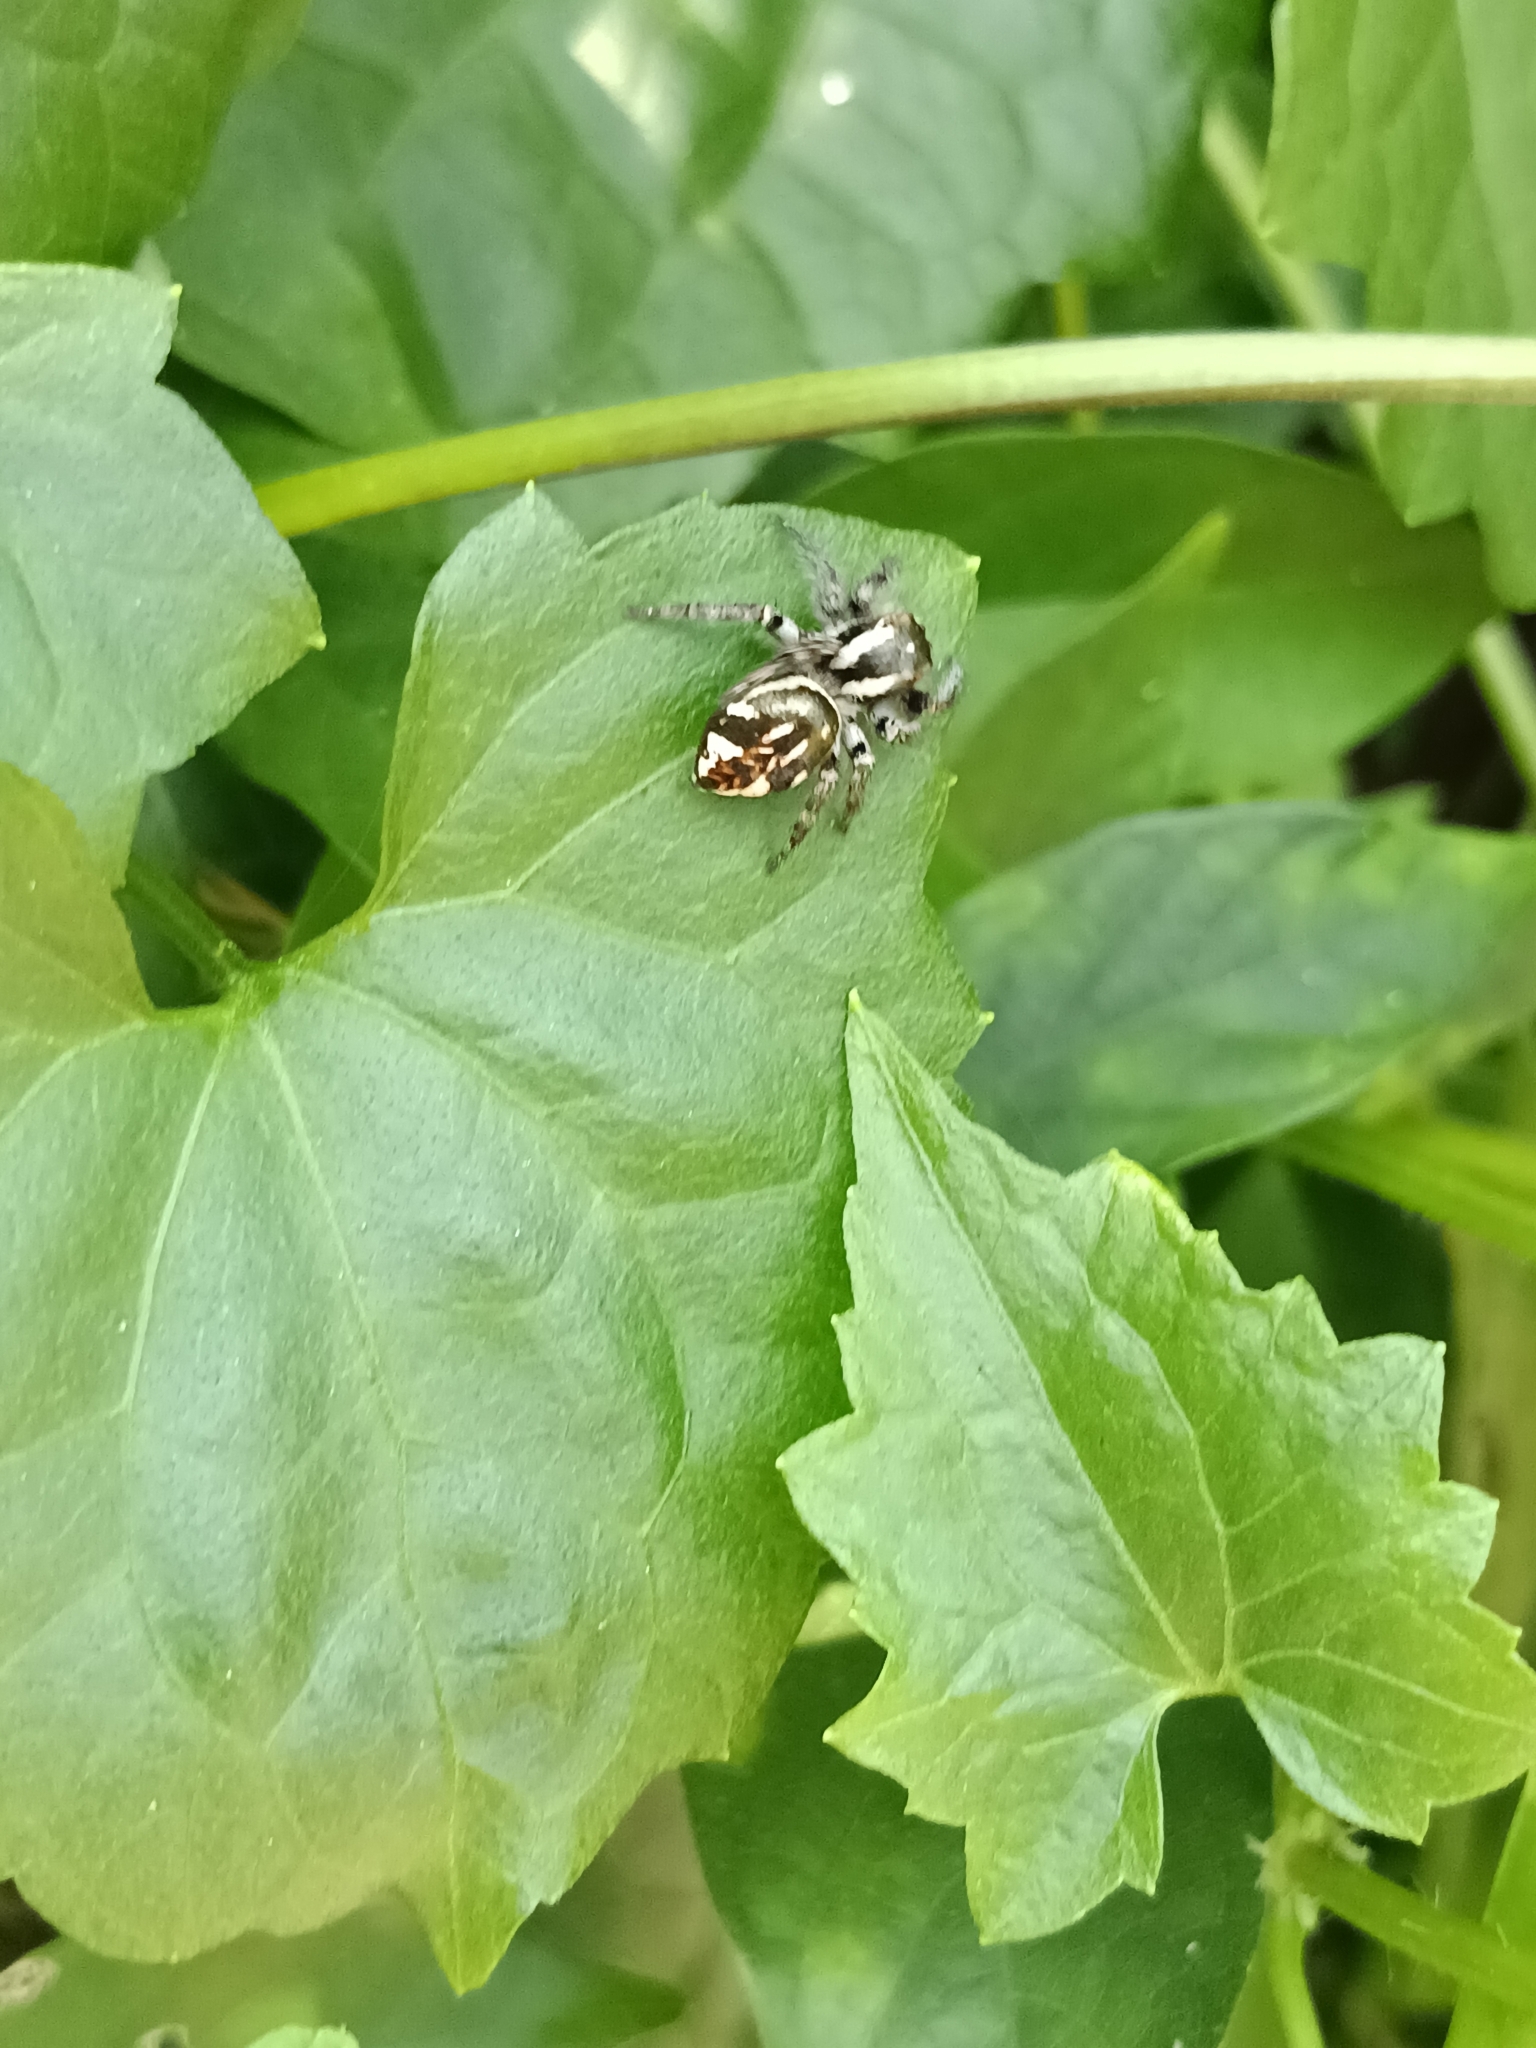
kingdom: Animalia
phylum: Arthropoda
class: Arachnida
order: Araneae
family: Salticidae
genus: Carrhotus
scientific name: Carrhotus viduus
